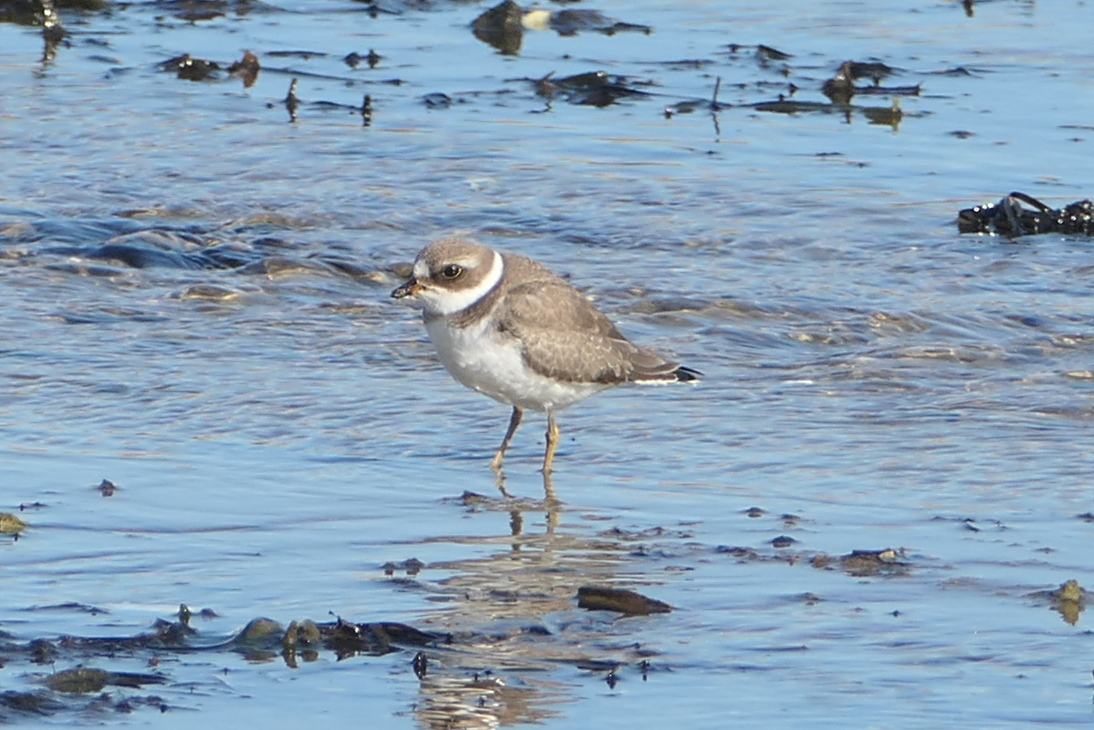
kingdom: Animalia
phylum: Chordata
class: Aves
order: Charadriiformes
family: Charadriidae
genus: Charadrius
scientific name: Charadrius semipalmatus
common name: Semipalmated plover
